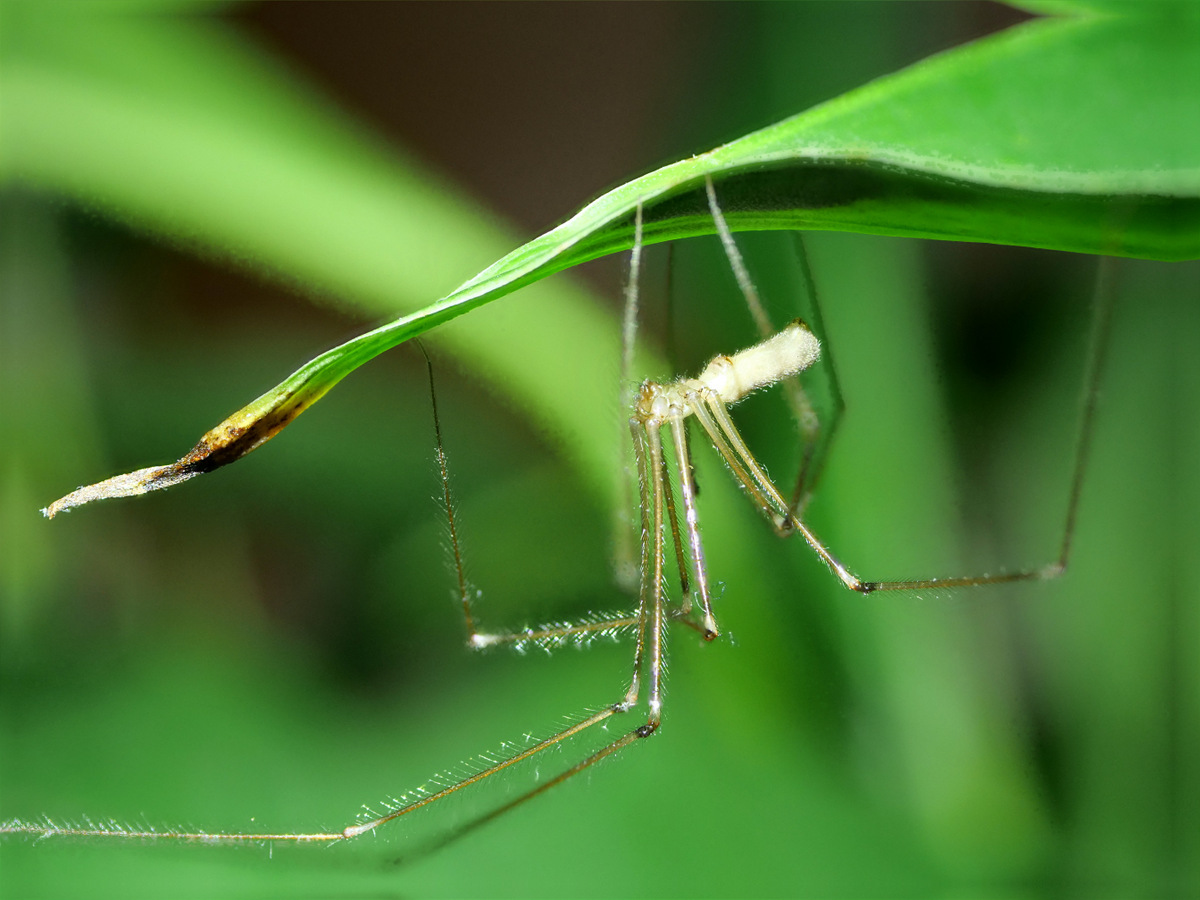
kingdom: Animalia
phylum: Arthropoda
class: Arachnida
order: Araneae
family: Pholcidae
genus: Pholcus
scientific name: Pholcus phalangioides
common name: Longbodied cellar spider
